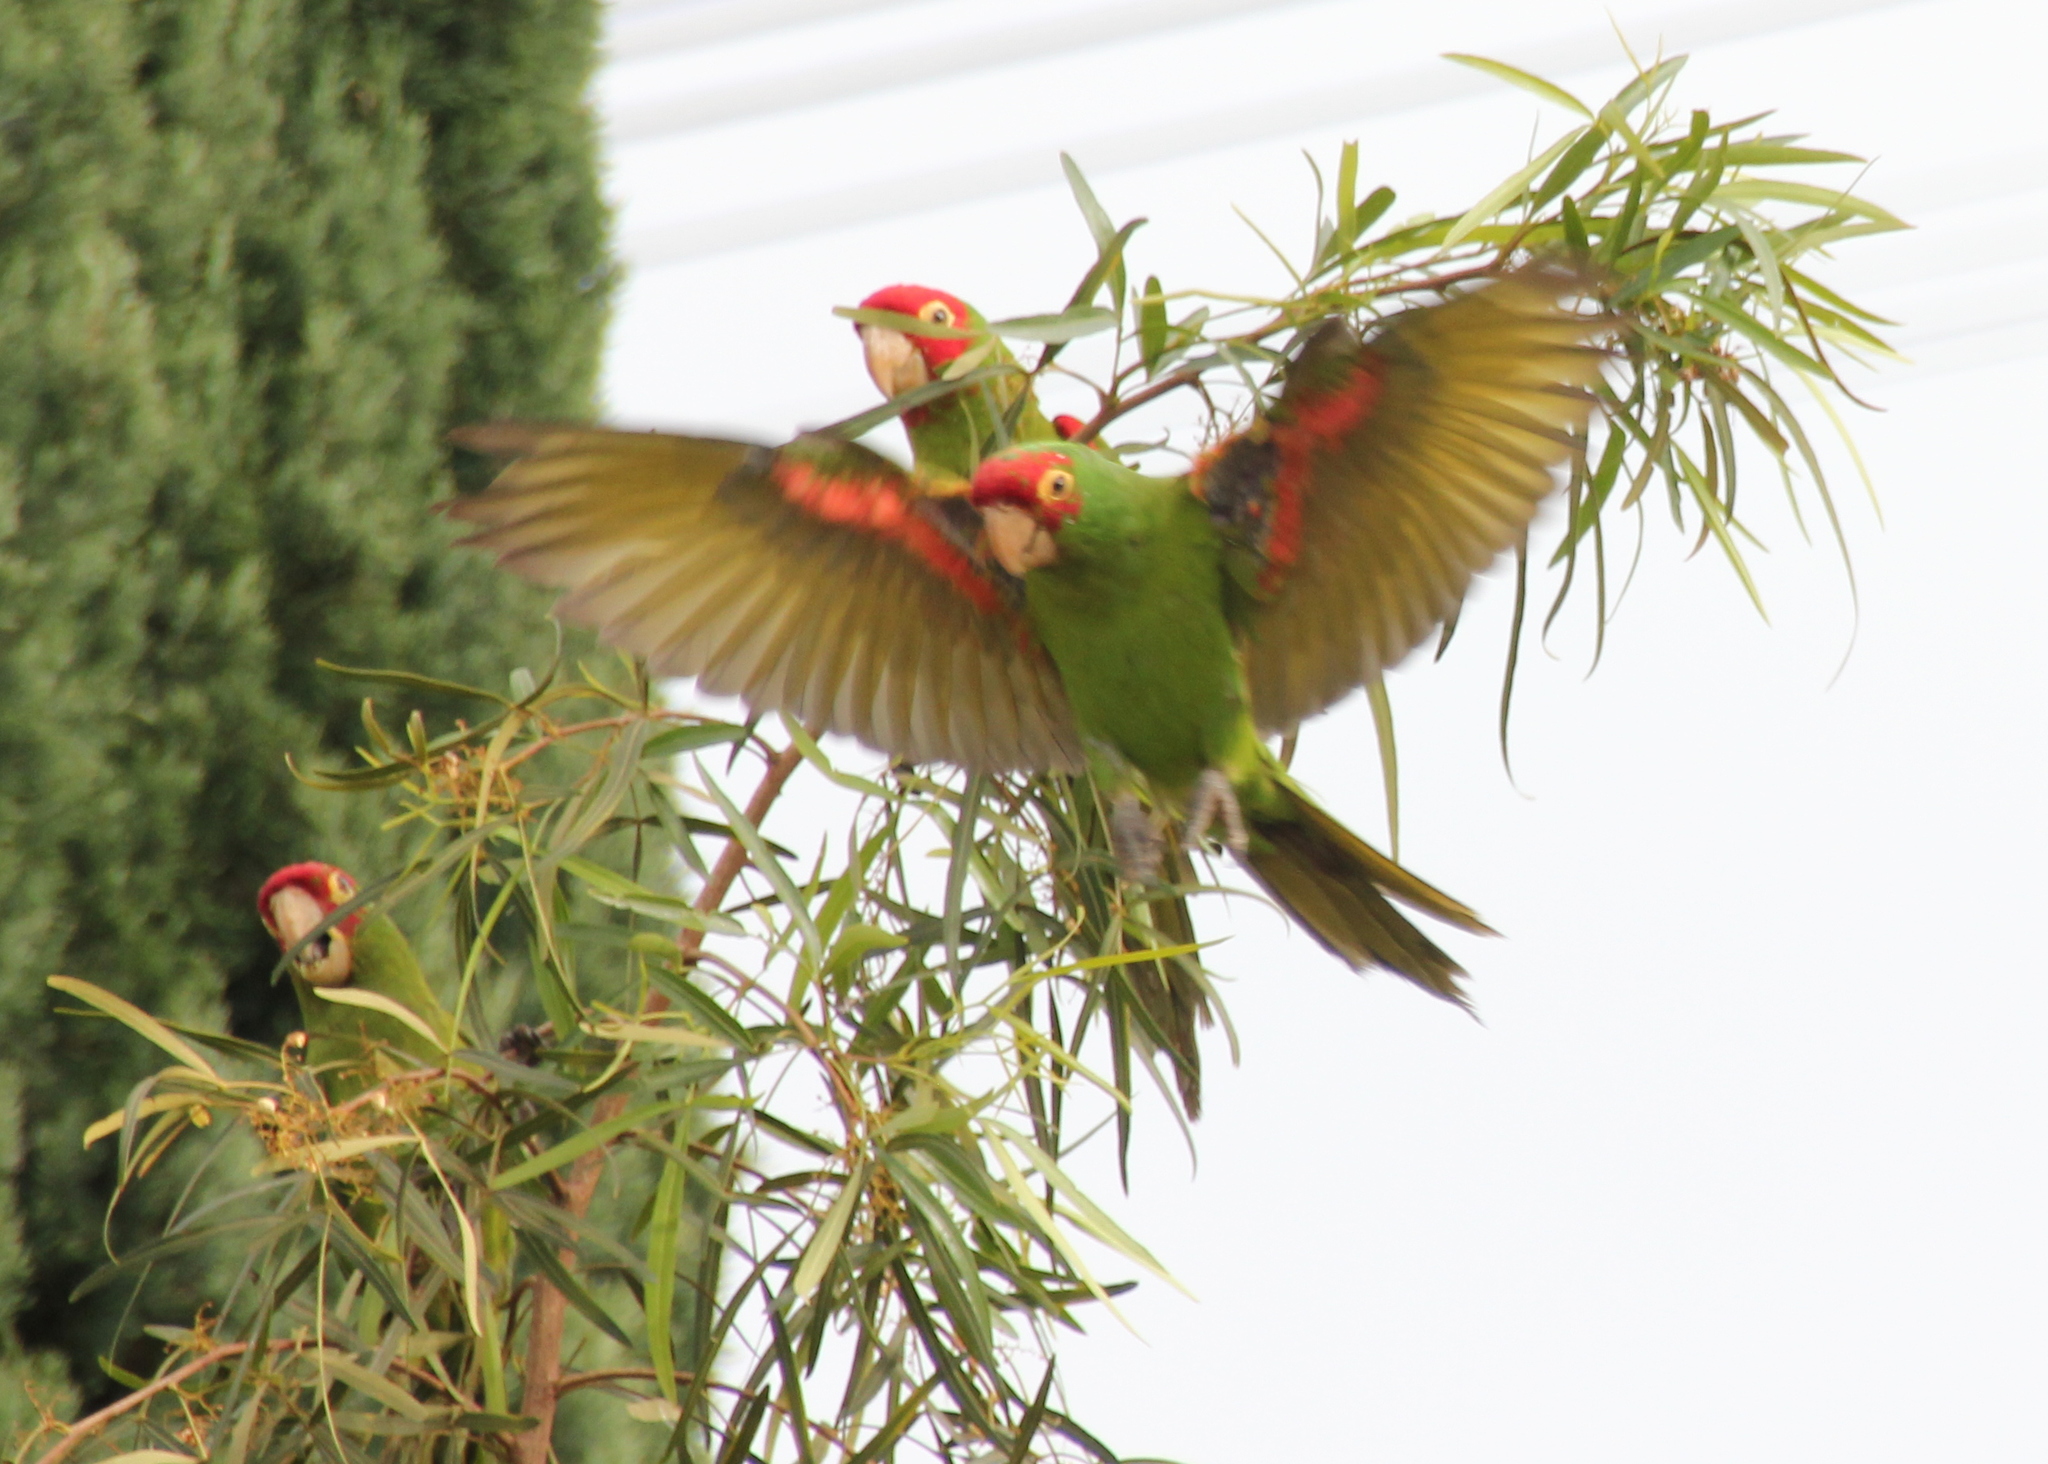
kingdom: Animalia
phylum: Chordata
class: Aves
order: Psittaciformes
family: Psittacidae
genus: Aratinga
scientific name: Aratinga erythrogenys
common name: Red-masked parakeet
